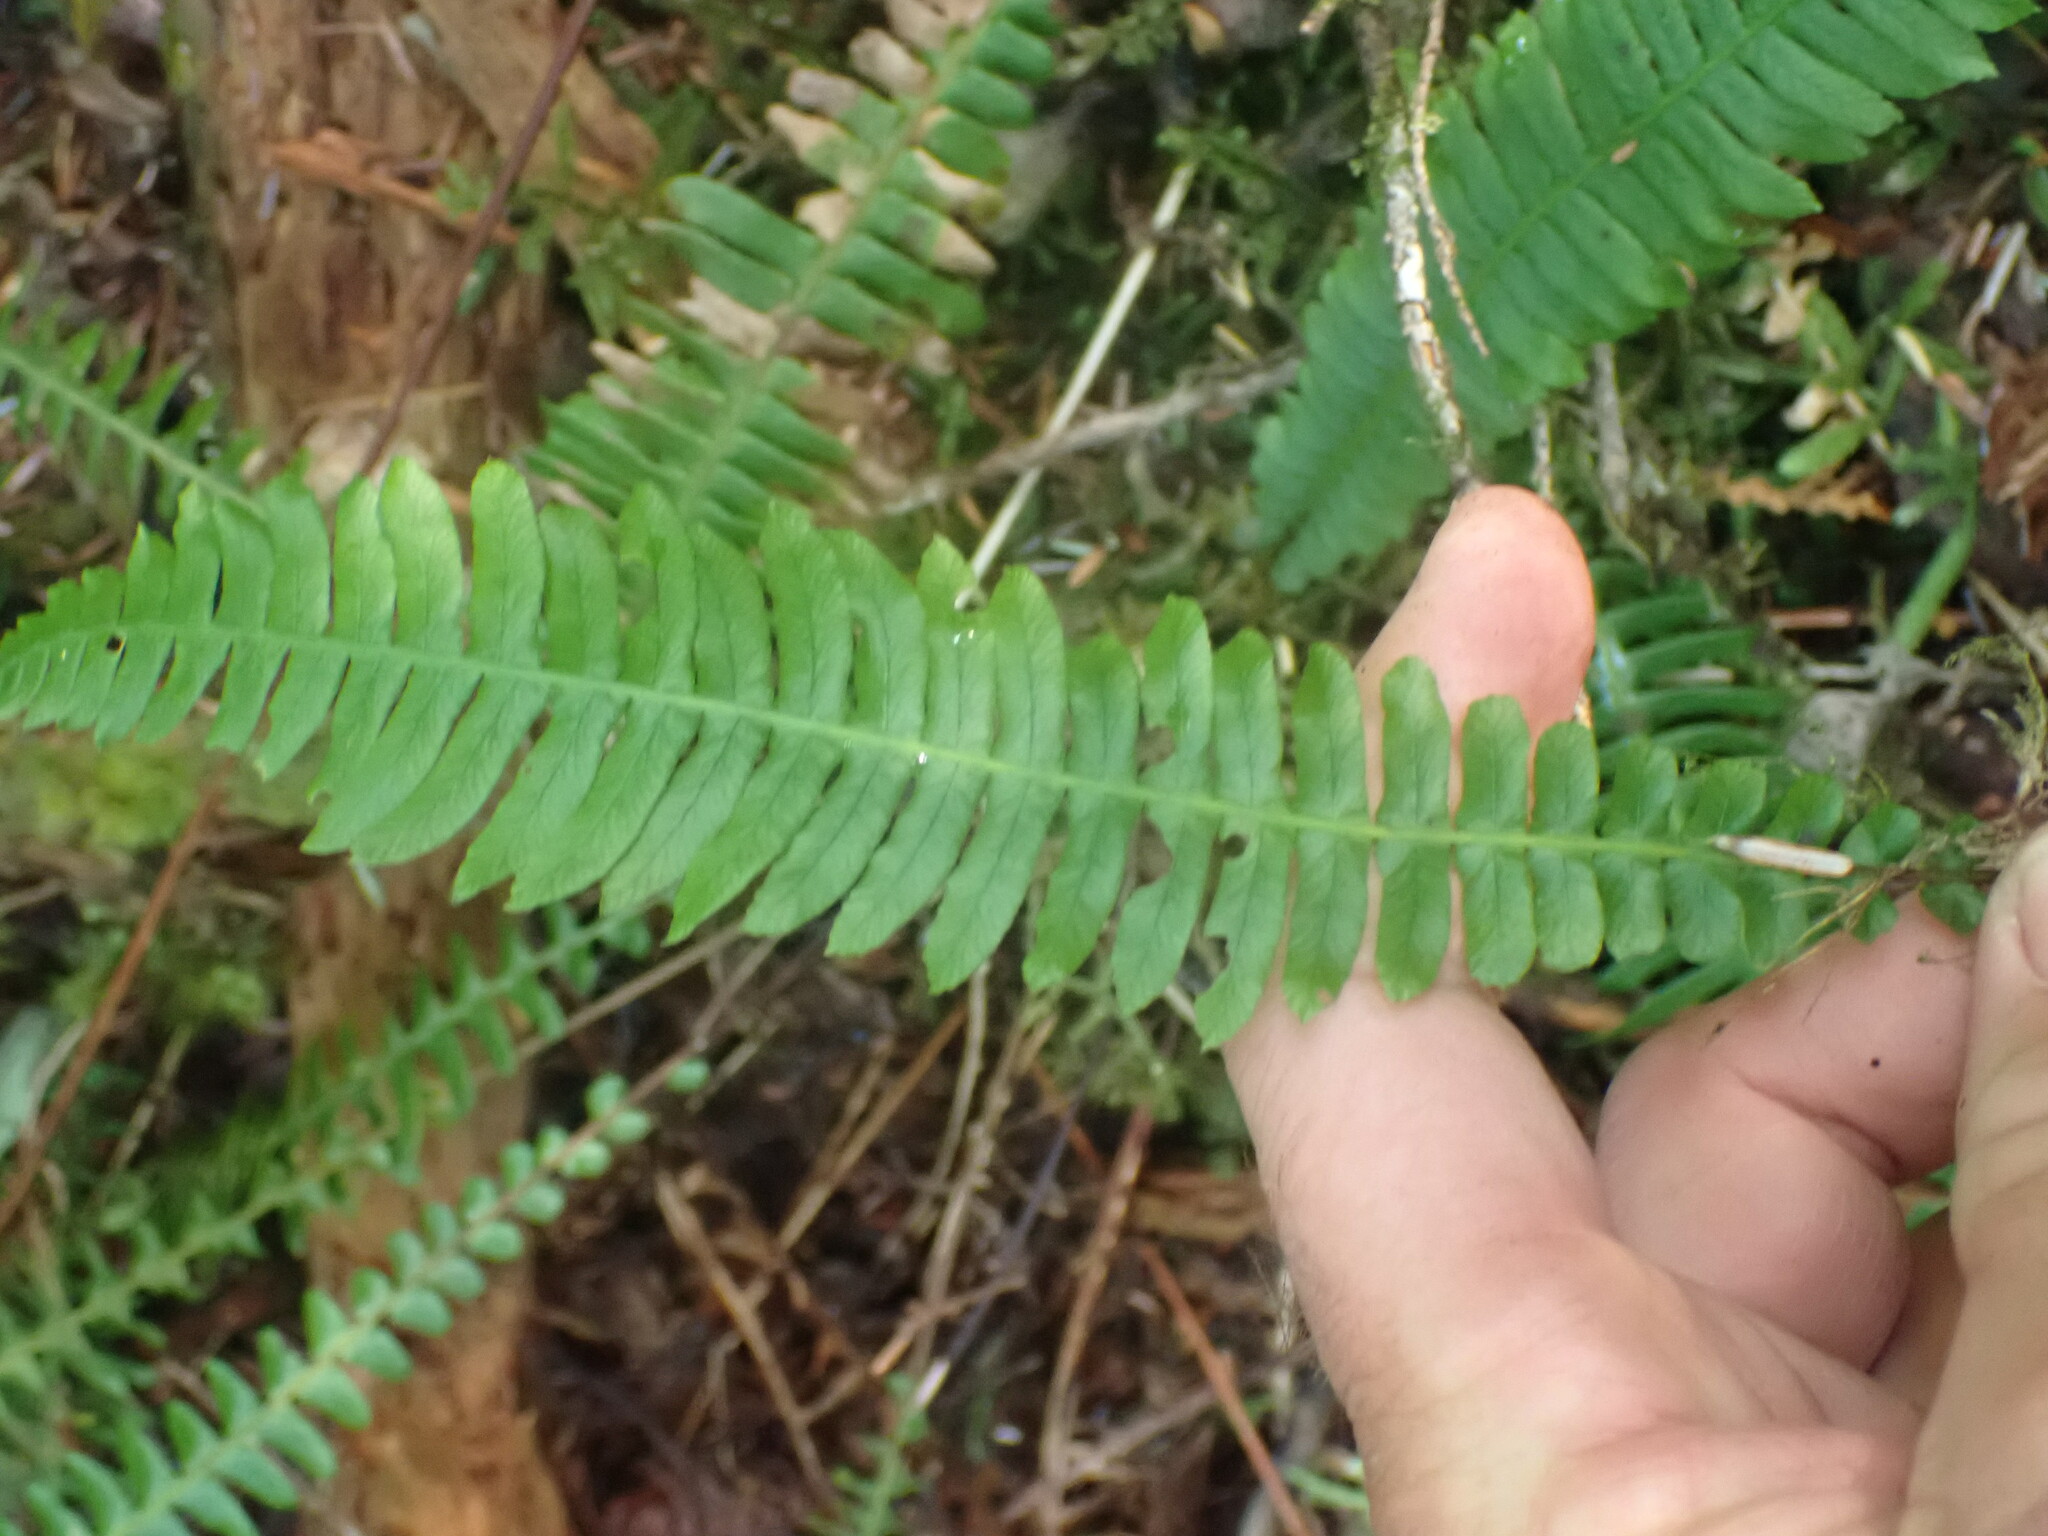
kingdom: Plantae
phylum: Tracheophyta
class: Polypodiopsida
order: Polypodiales
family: Blechnaceae
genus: Struthiopteris
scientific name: Struthiopteris spicant
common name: Deer fern
